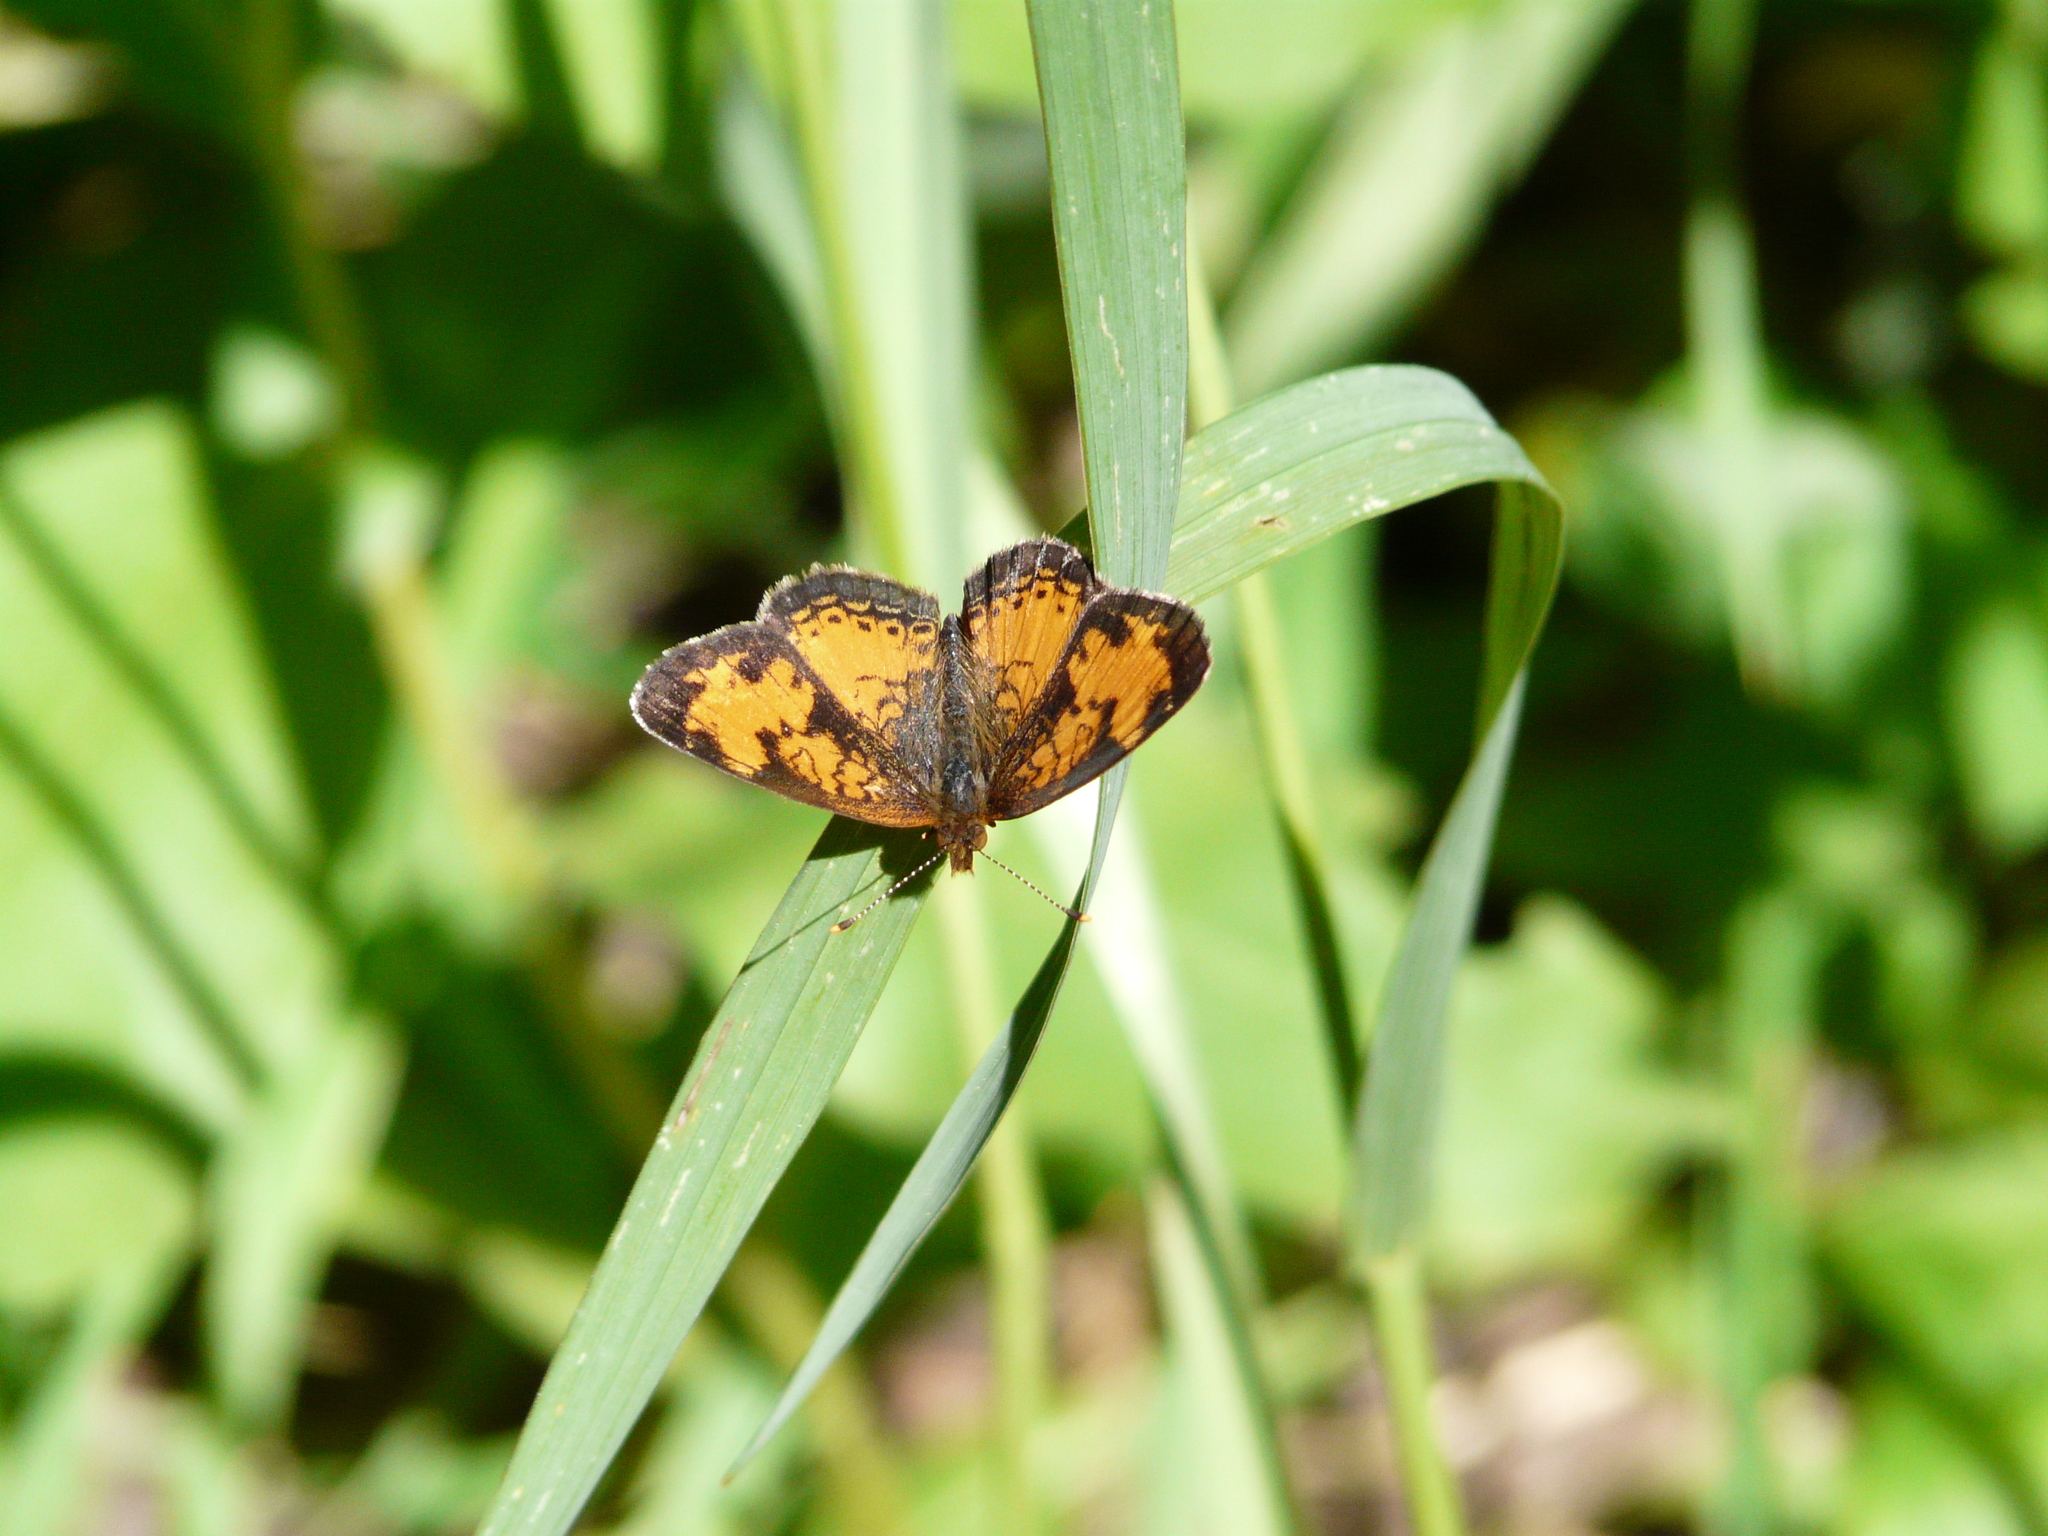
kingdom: Animalia
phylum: Arthropoda
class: Insecta
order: Lepidoptera
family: Nymphalidae
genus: Phyciodes
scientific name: Phyciodes tharos
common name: Pearl crescent
